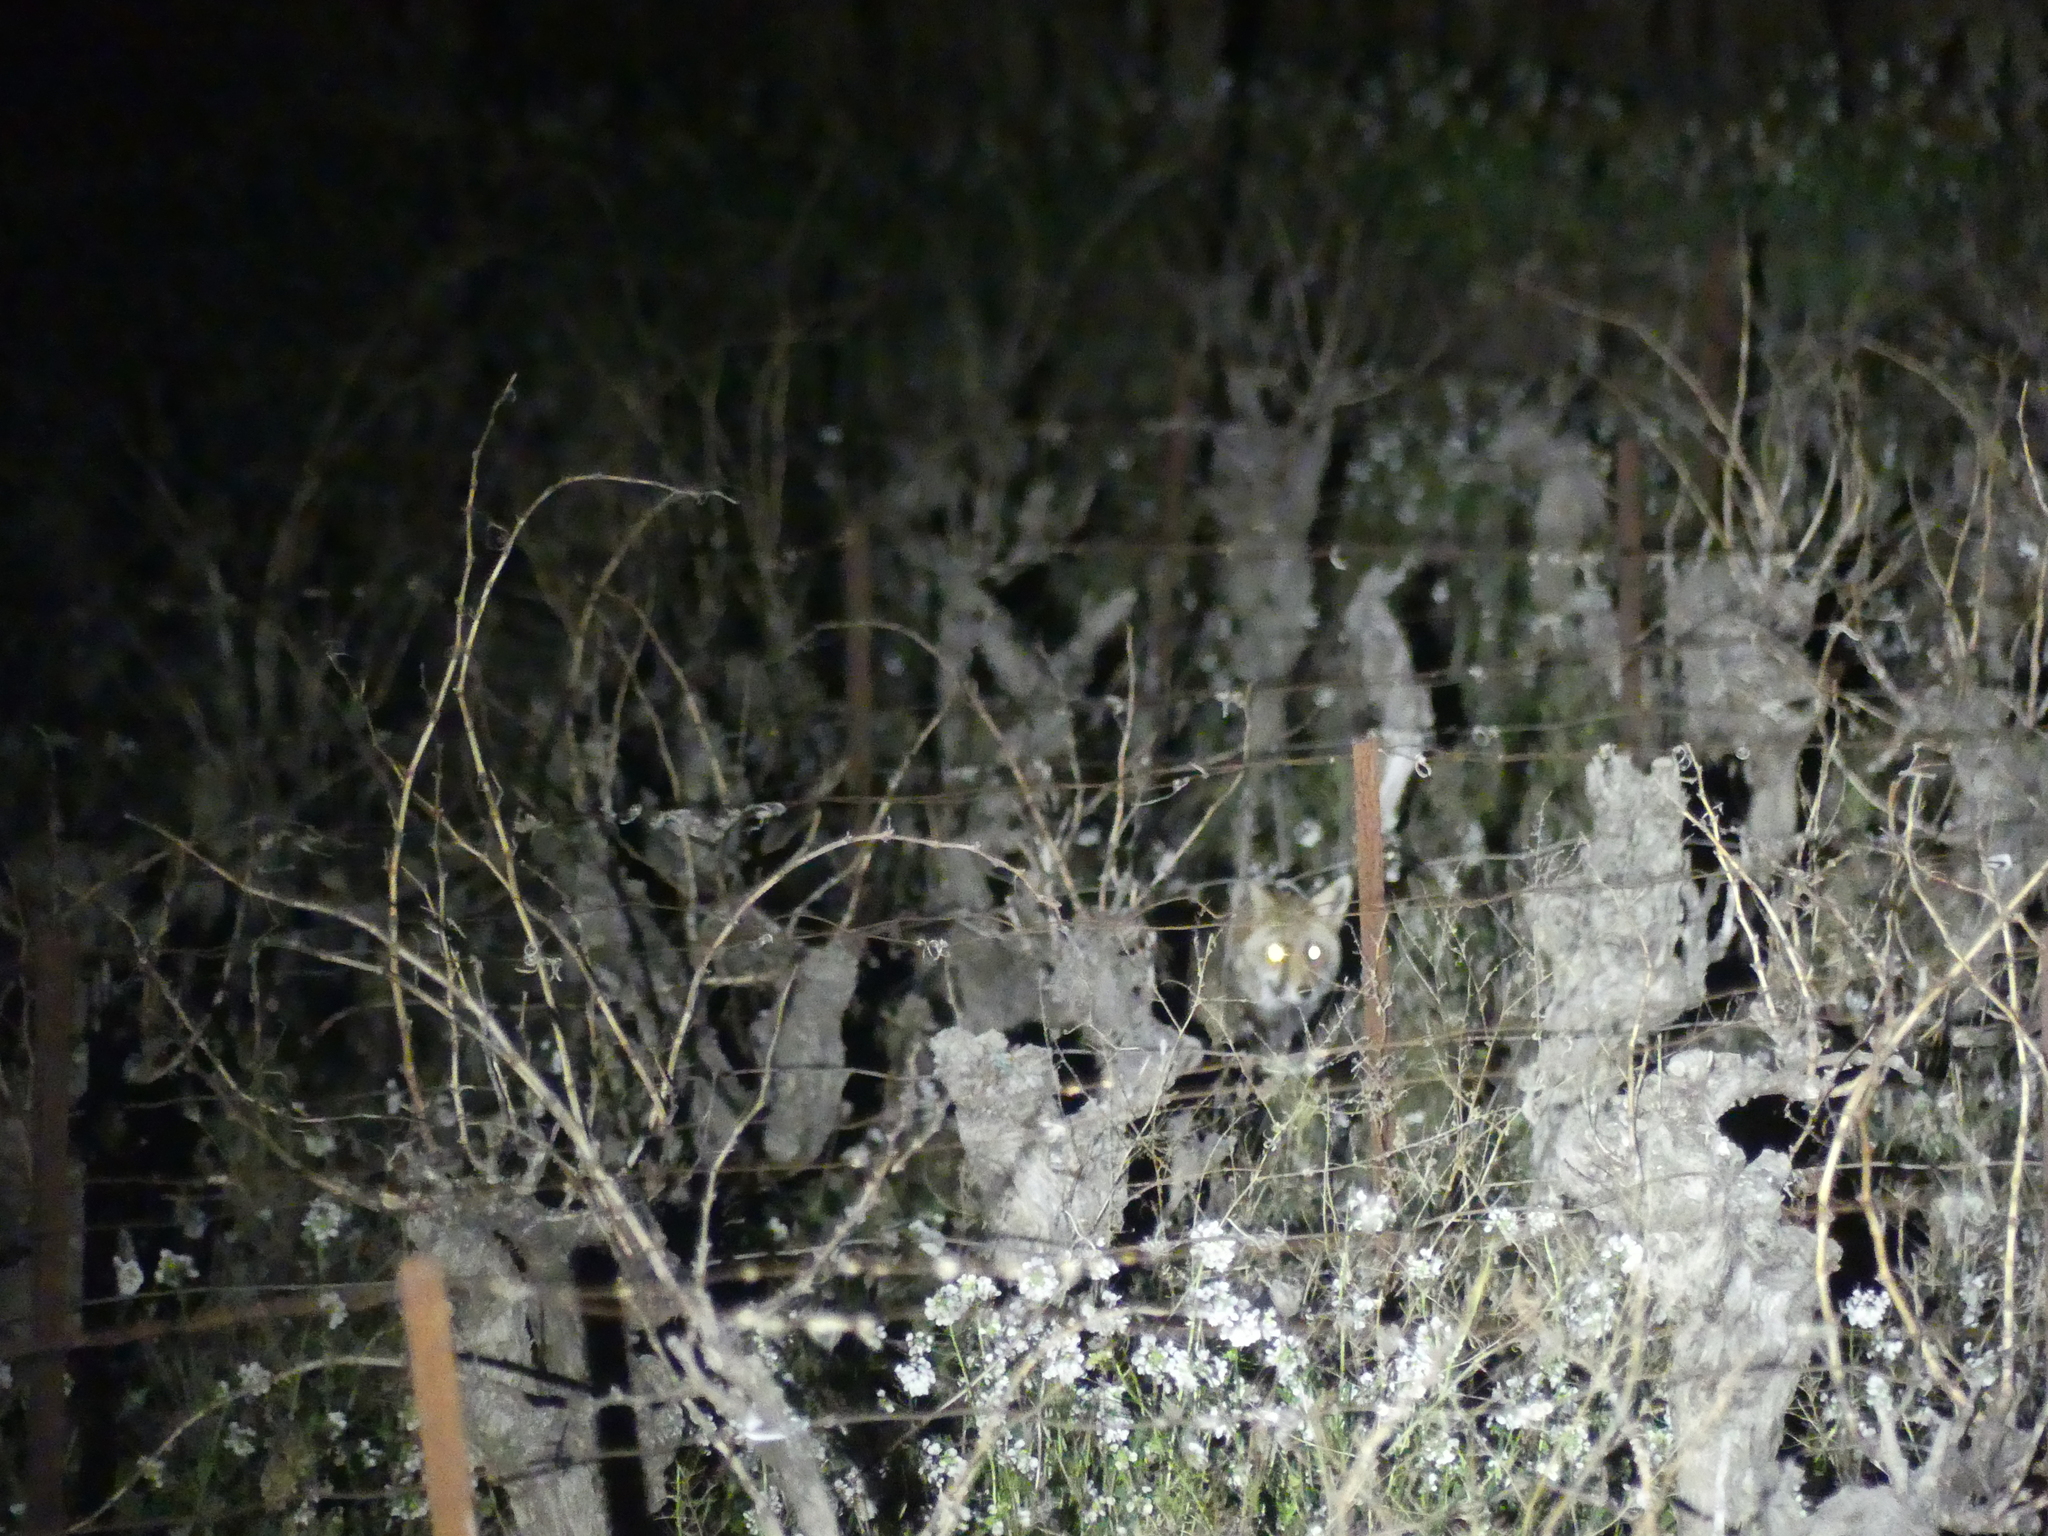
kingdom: Animalia
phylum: Chordata
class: Mammalia
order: Carnivora
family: Canidae
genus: Vulpes
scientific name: Vulpes vulpes
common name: Red fox
